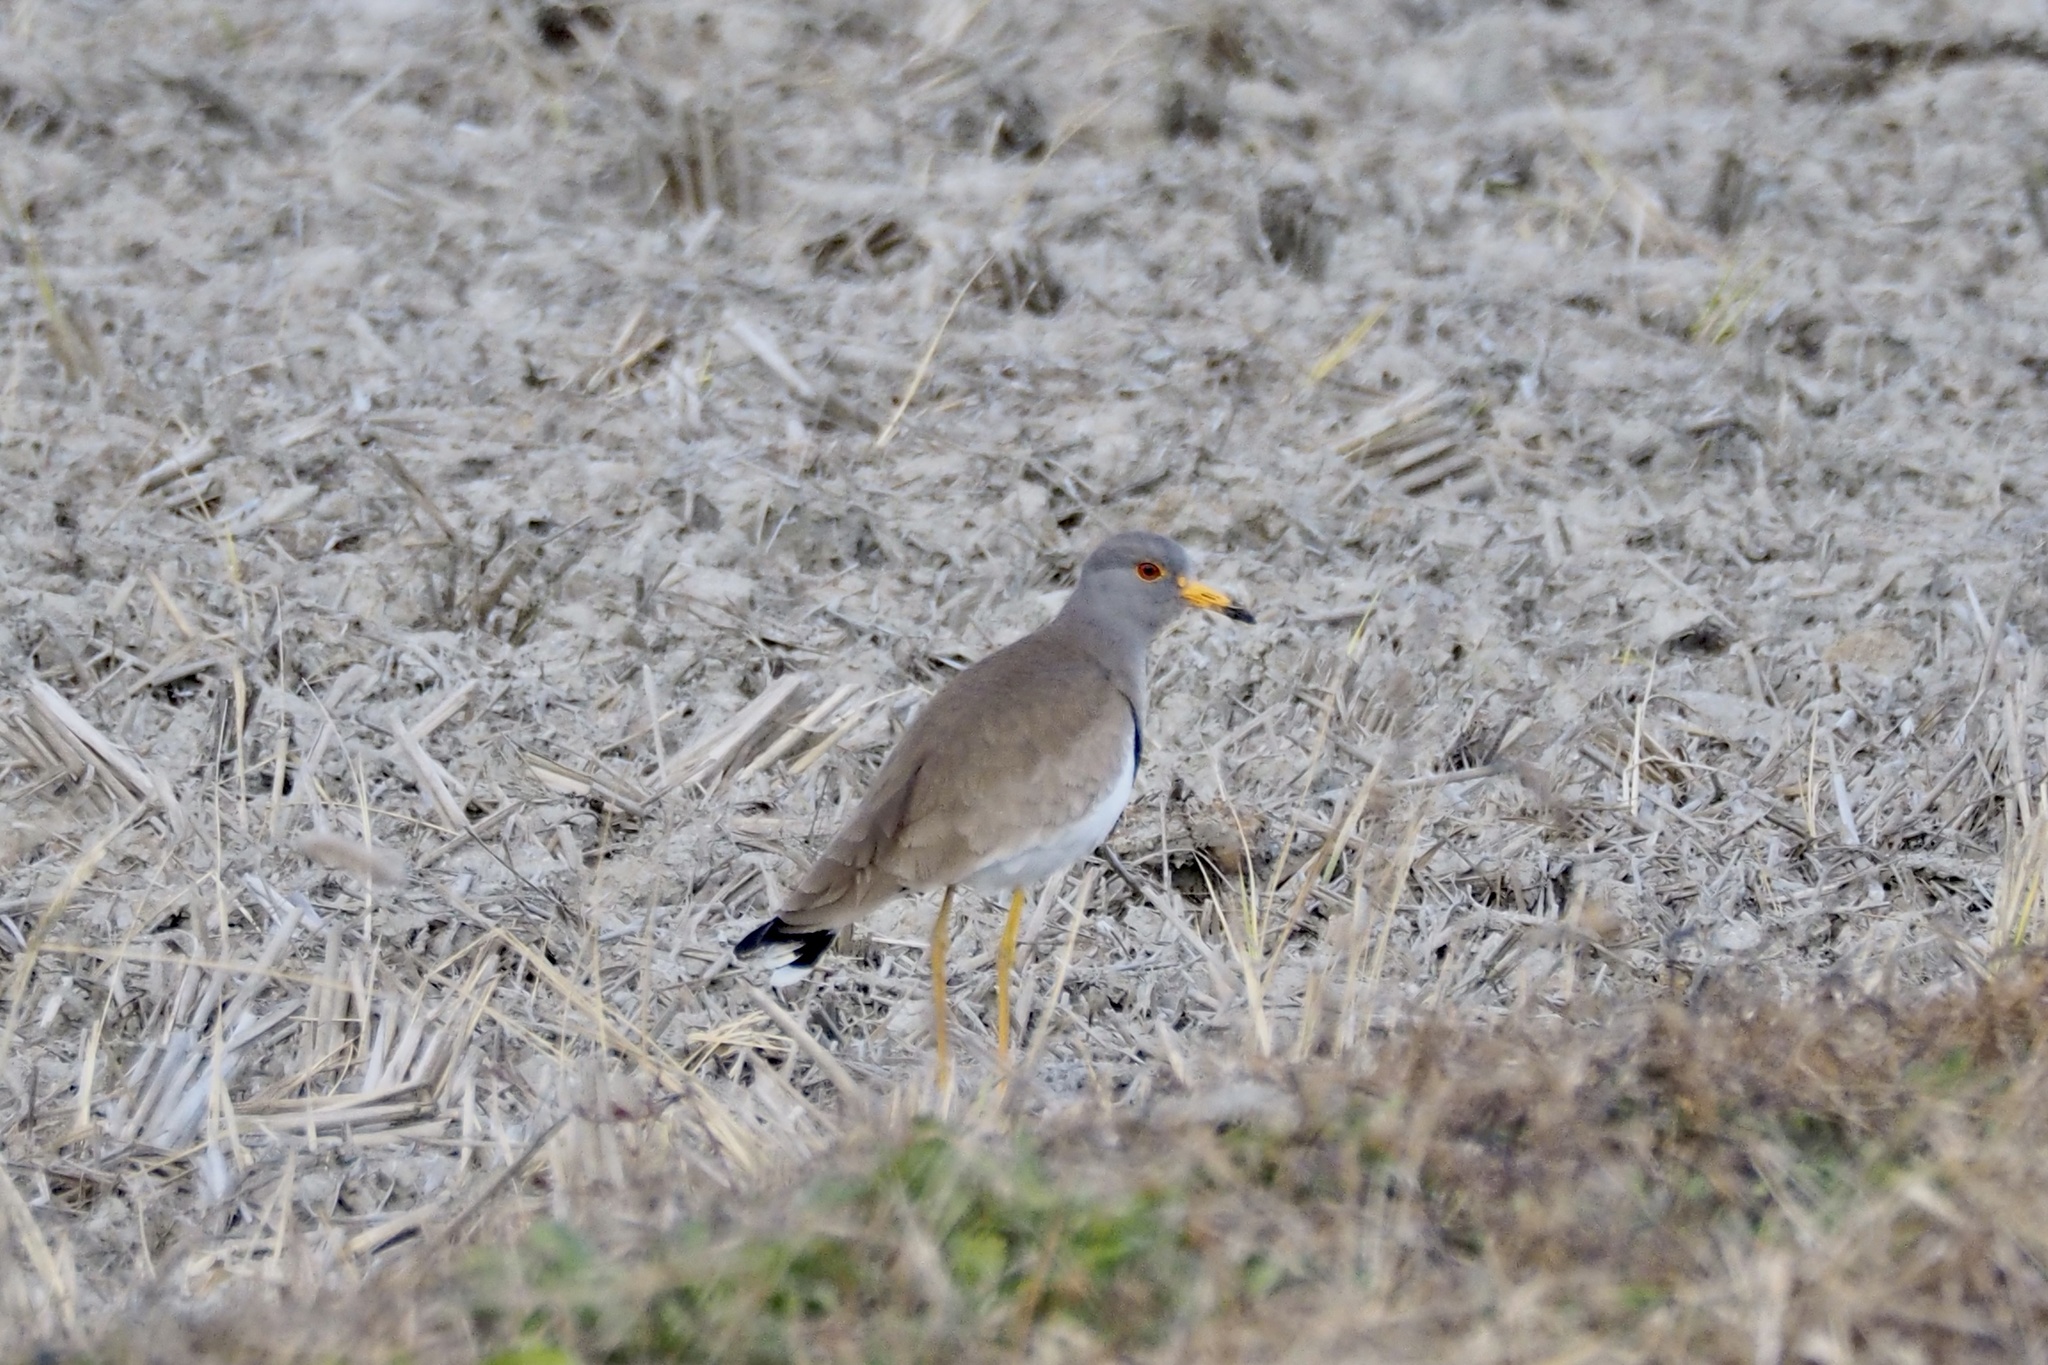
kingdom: Animalia
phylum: Chordata
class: Aves
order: Charadriiformes
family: Charadriidae
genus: Vanellus
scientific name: Vanellus cinereus
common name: Grey-headed lapwing
